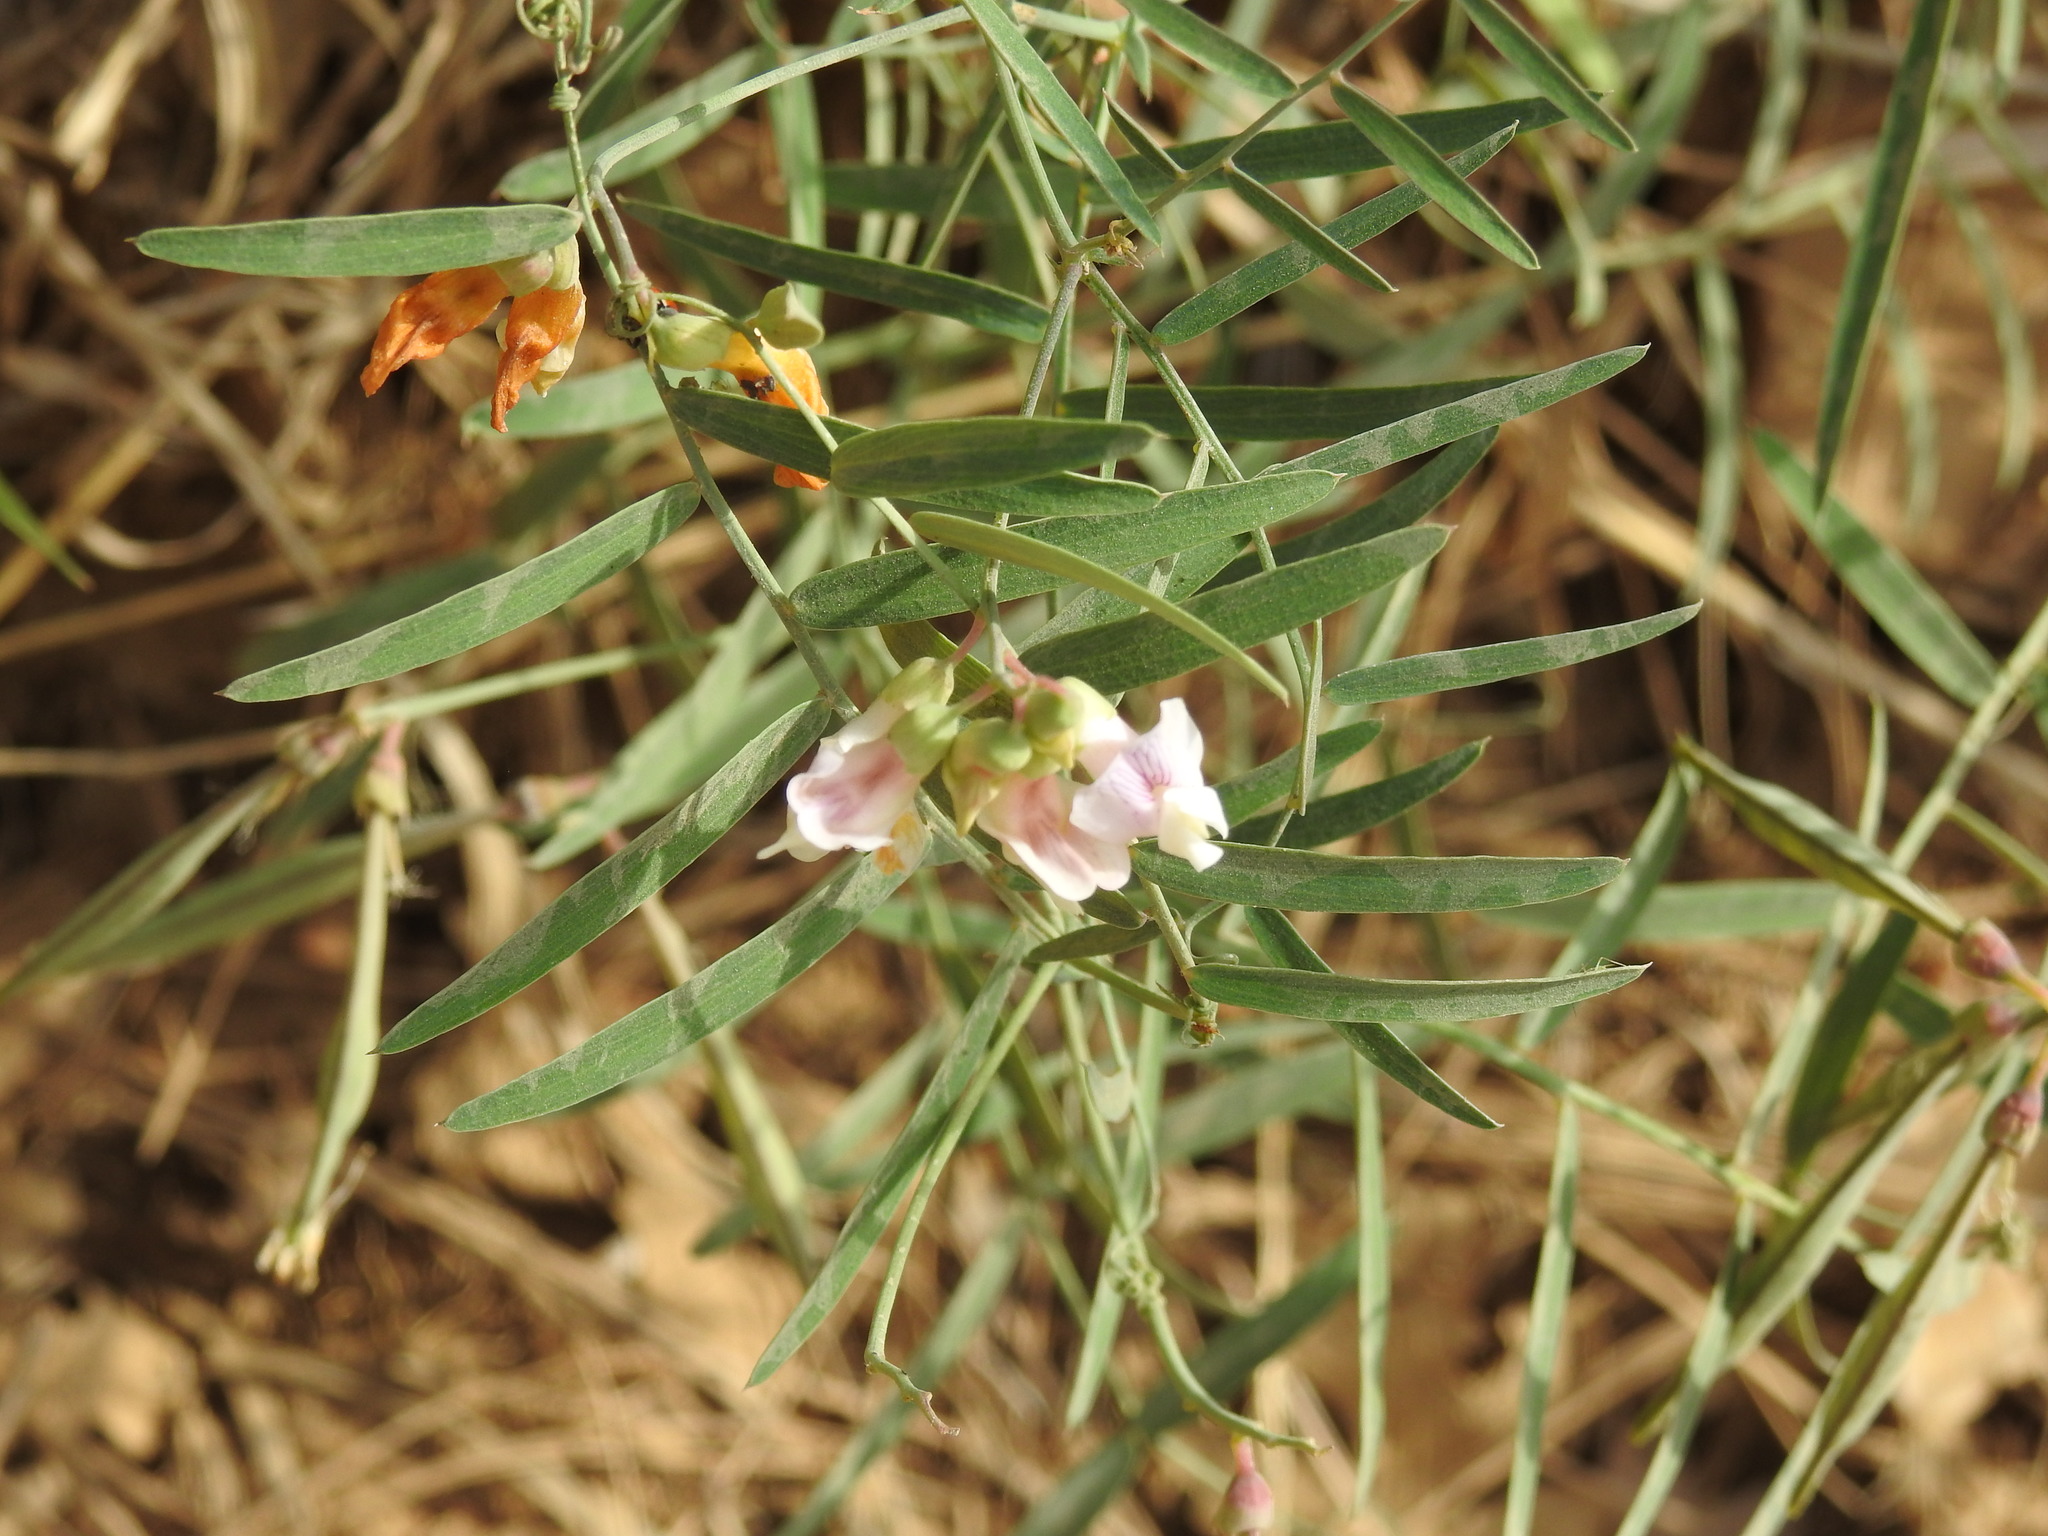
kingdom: Plantae
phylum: Tracheophyta
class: Magnoliopsida
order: Fabales
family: Fabaceae
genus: Lathyrus
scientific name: Lathyrus graminifolius
